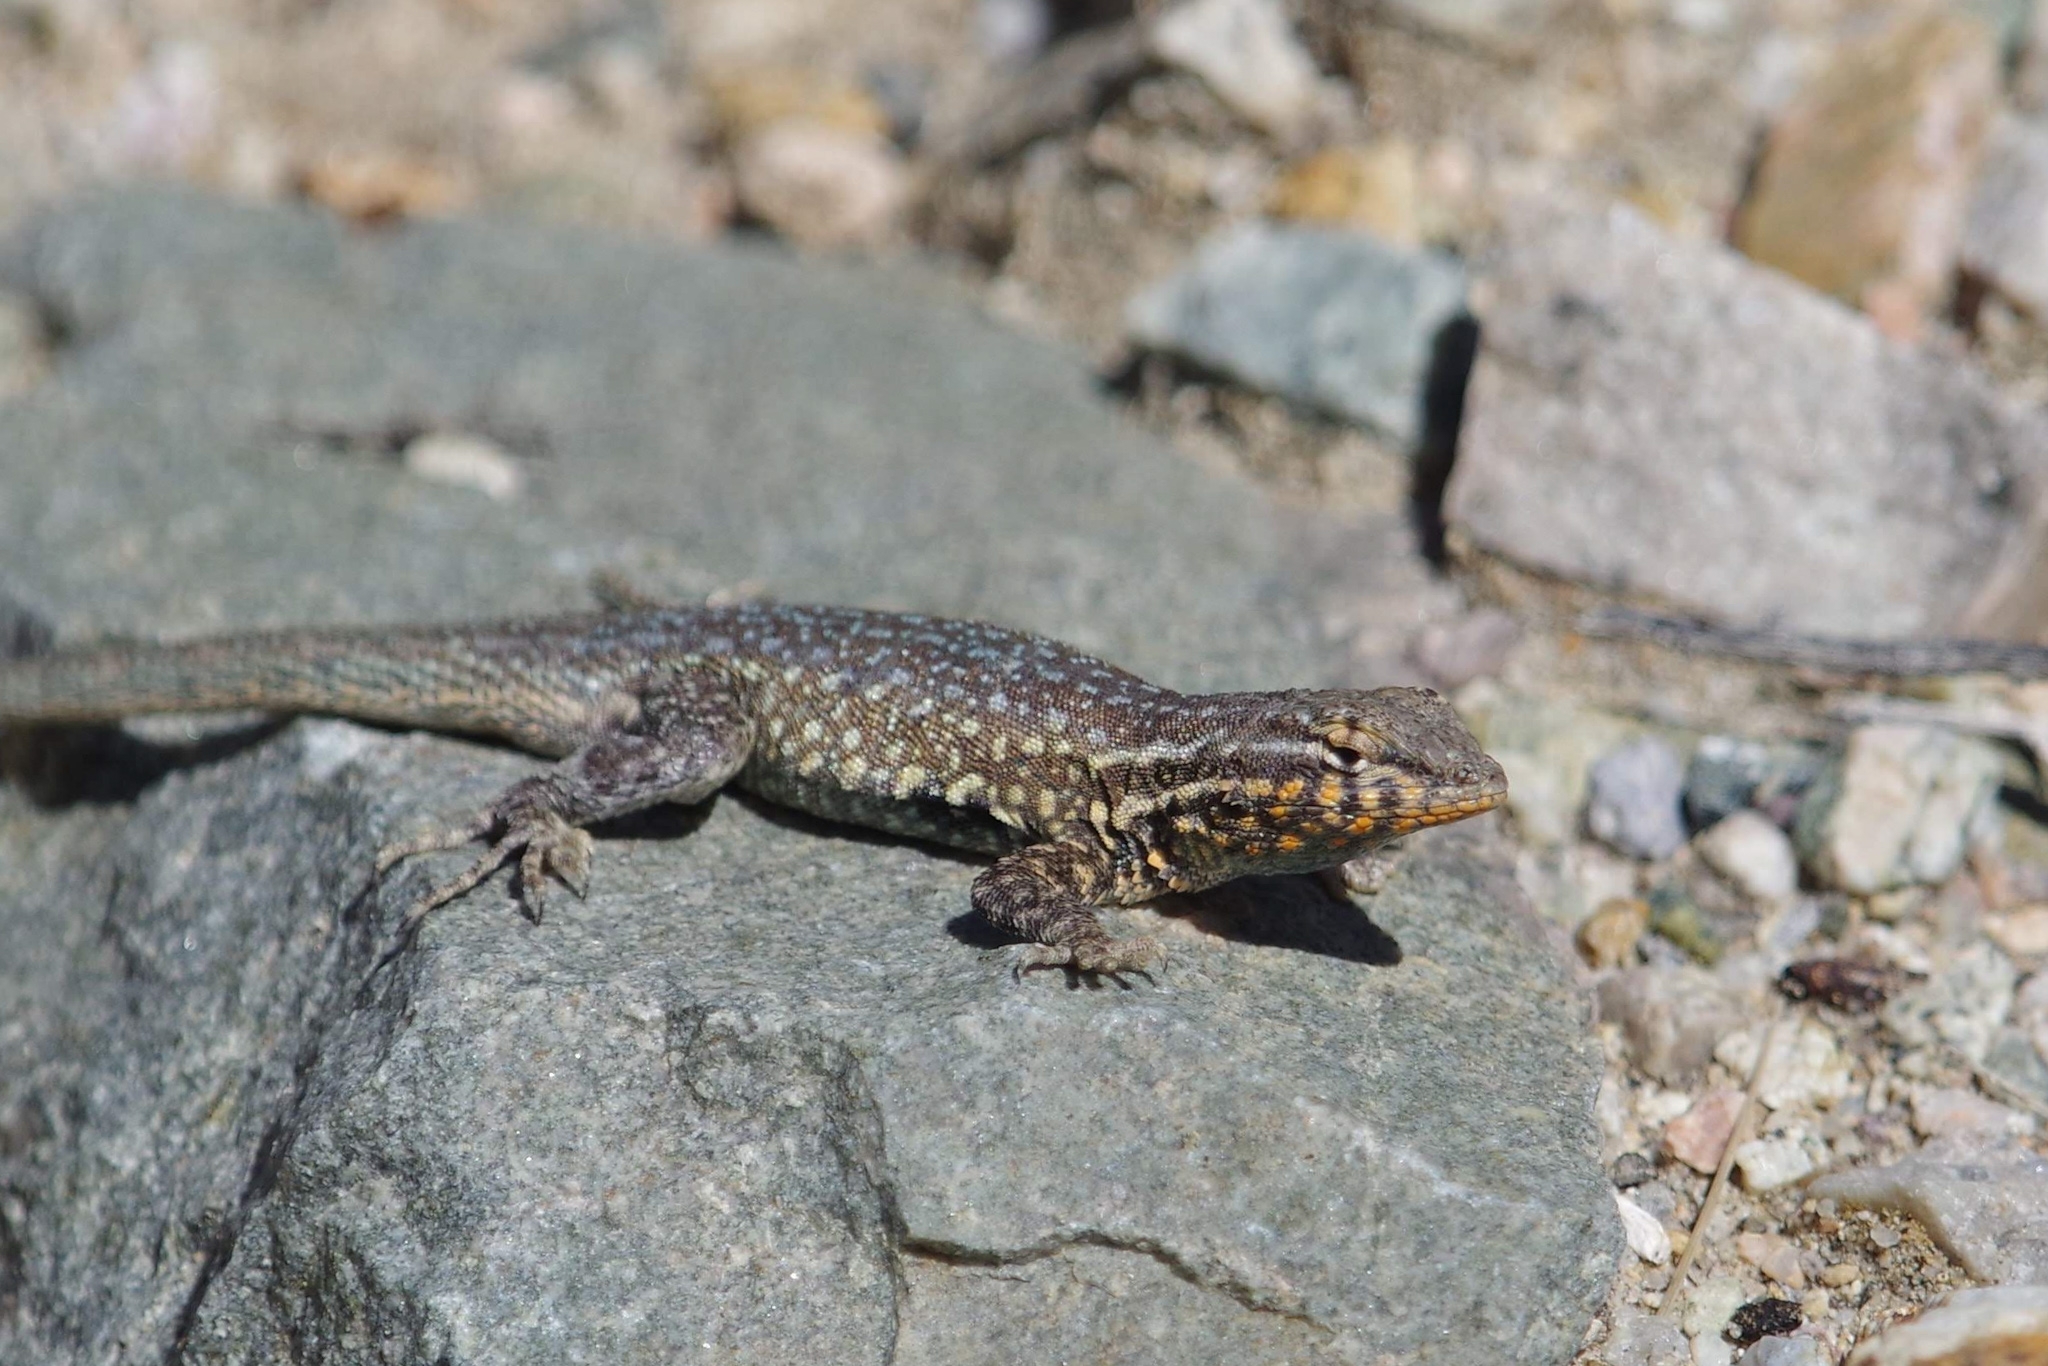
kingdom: Animalia
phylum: Chordata
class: Squamata
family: Phrynosomatidae
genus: Uta
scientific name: Uta stansburiana
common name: Side-blotched lizard
